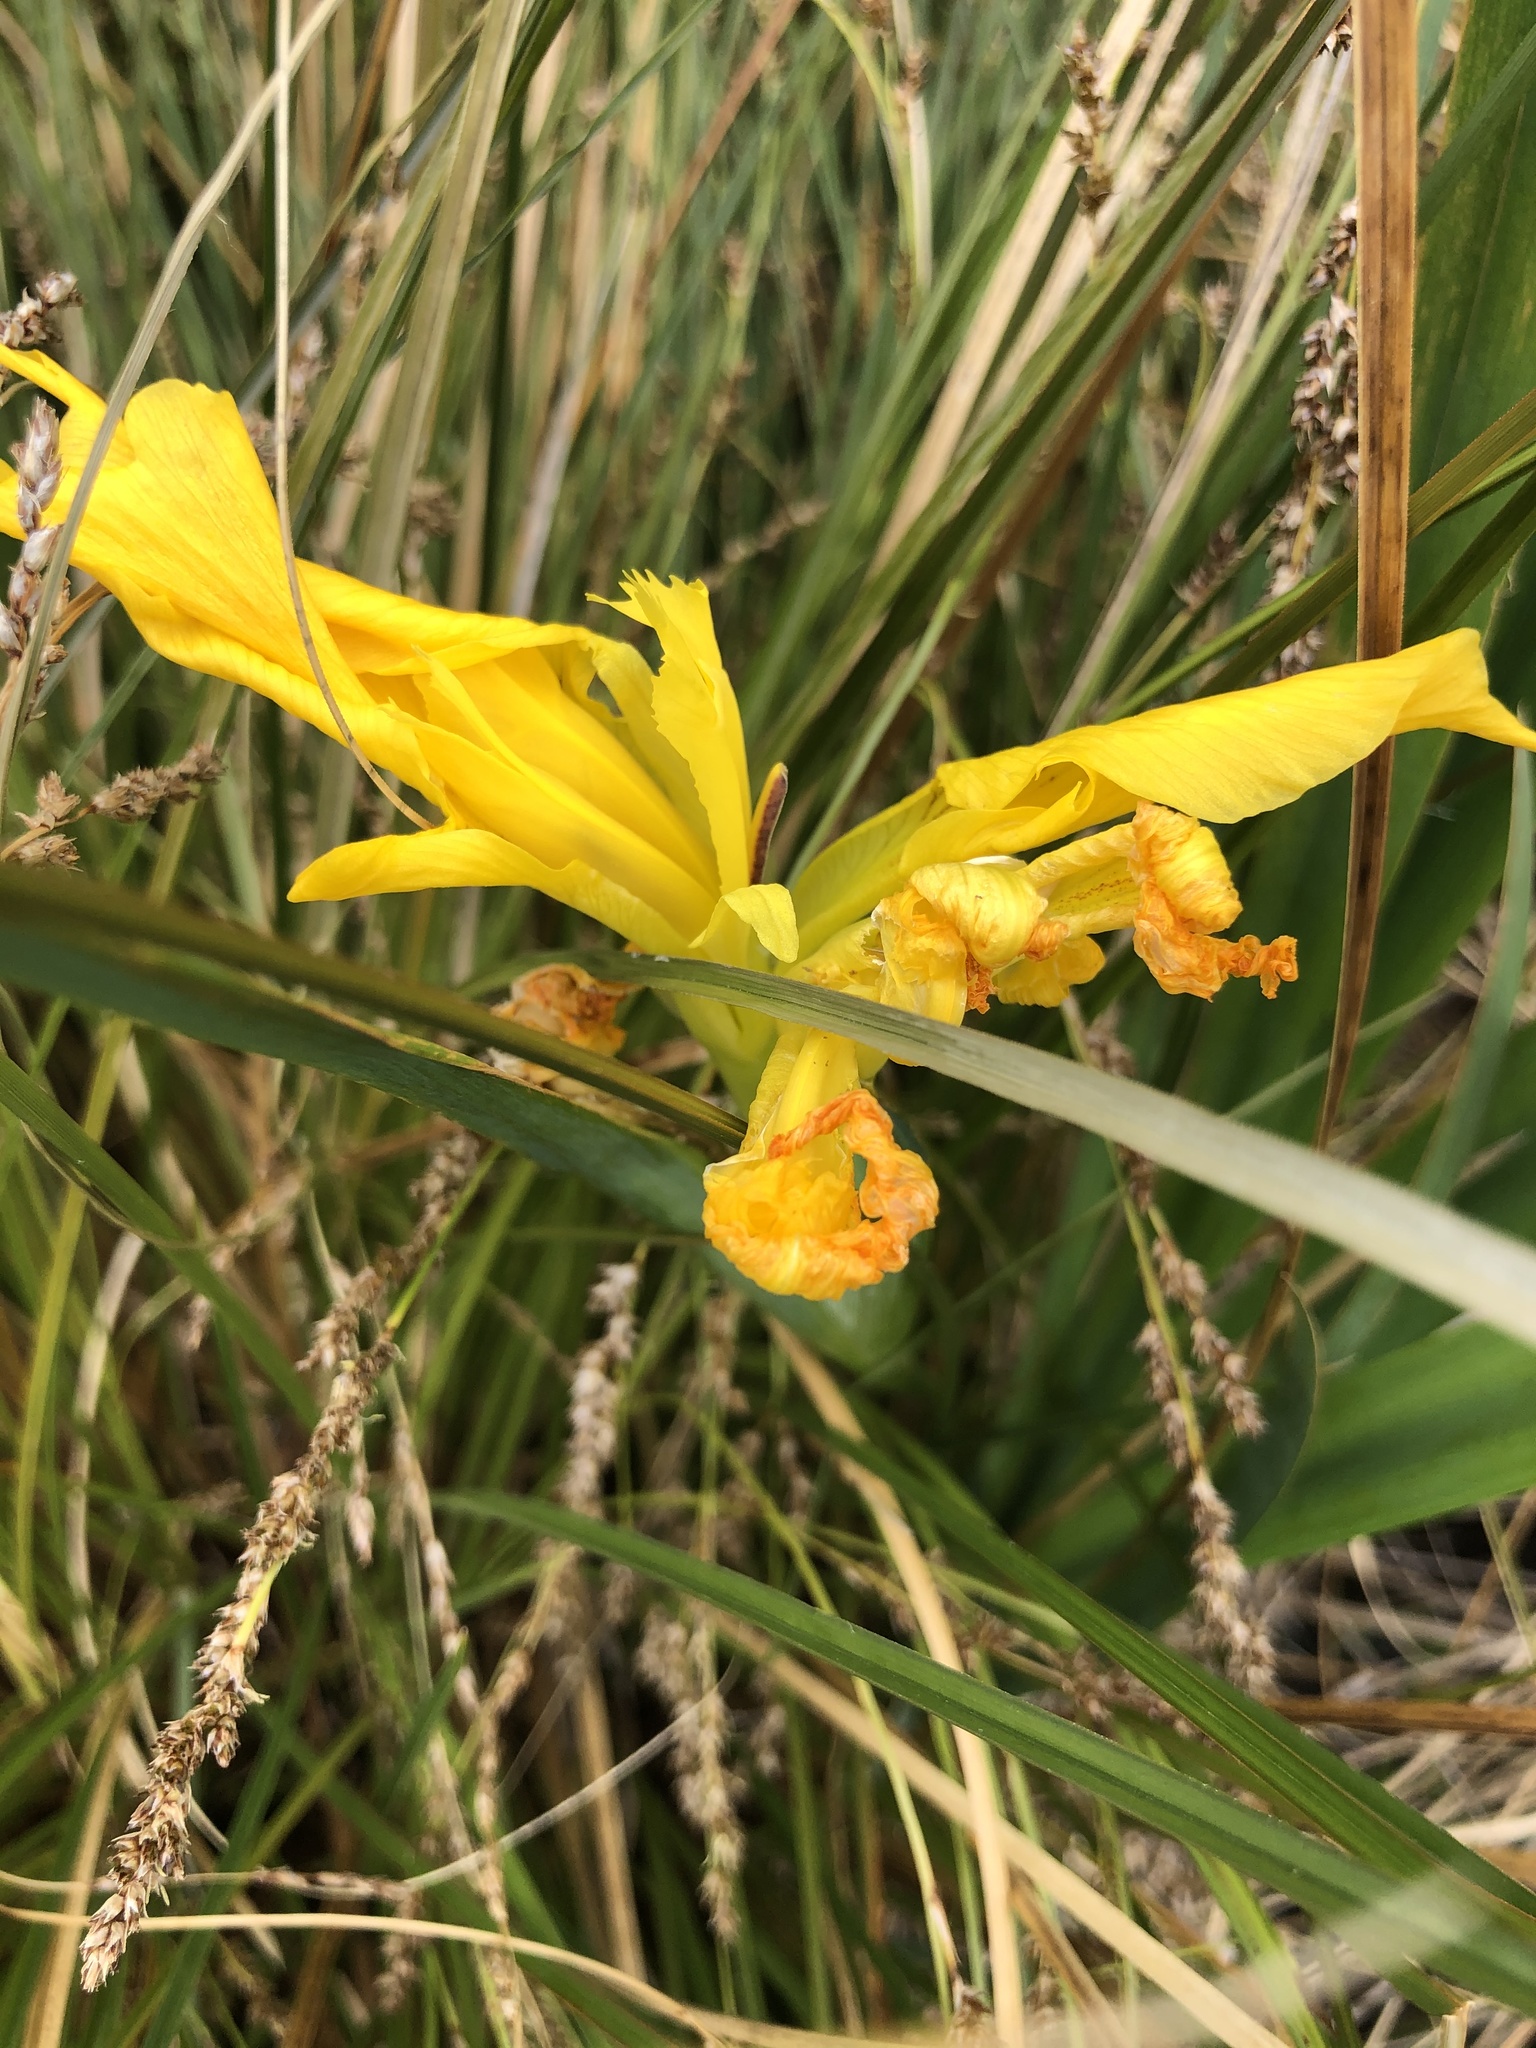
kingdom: Plantae
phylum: Tracheophyta
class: Liliopsida
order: Asparagales
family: Iridaceae
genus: Iris
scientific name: Iris pseudacorus
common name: Yellow flag
